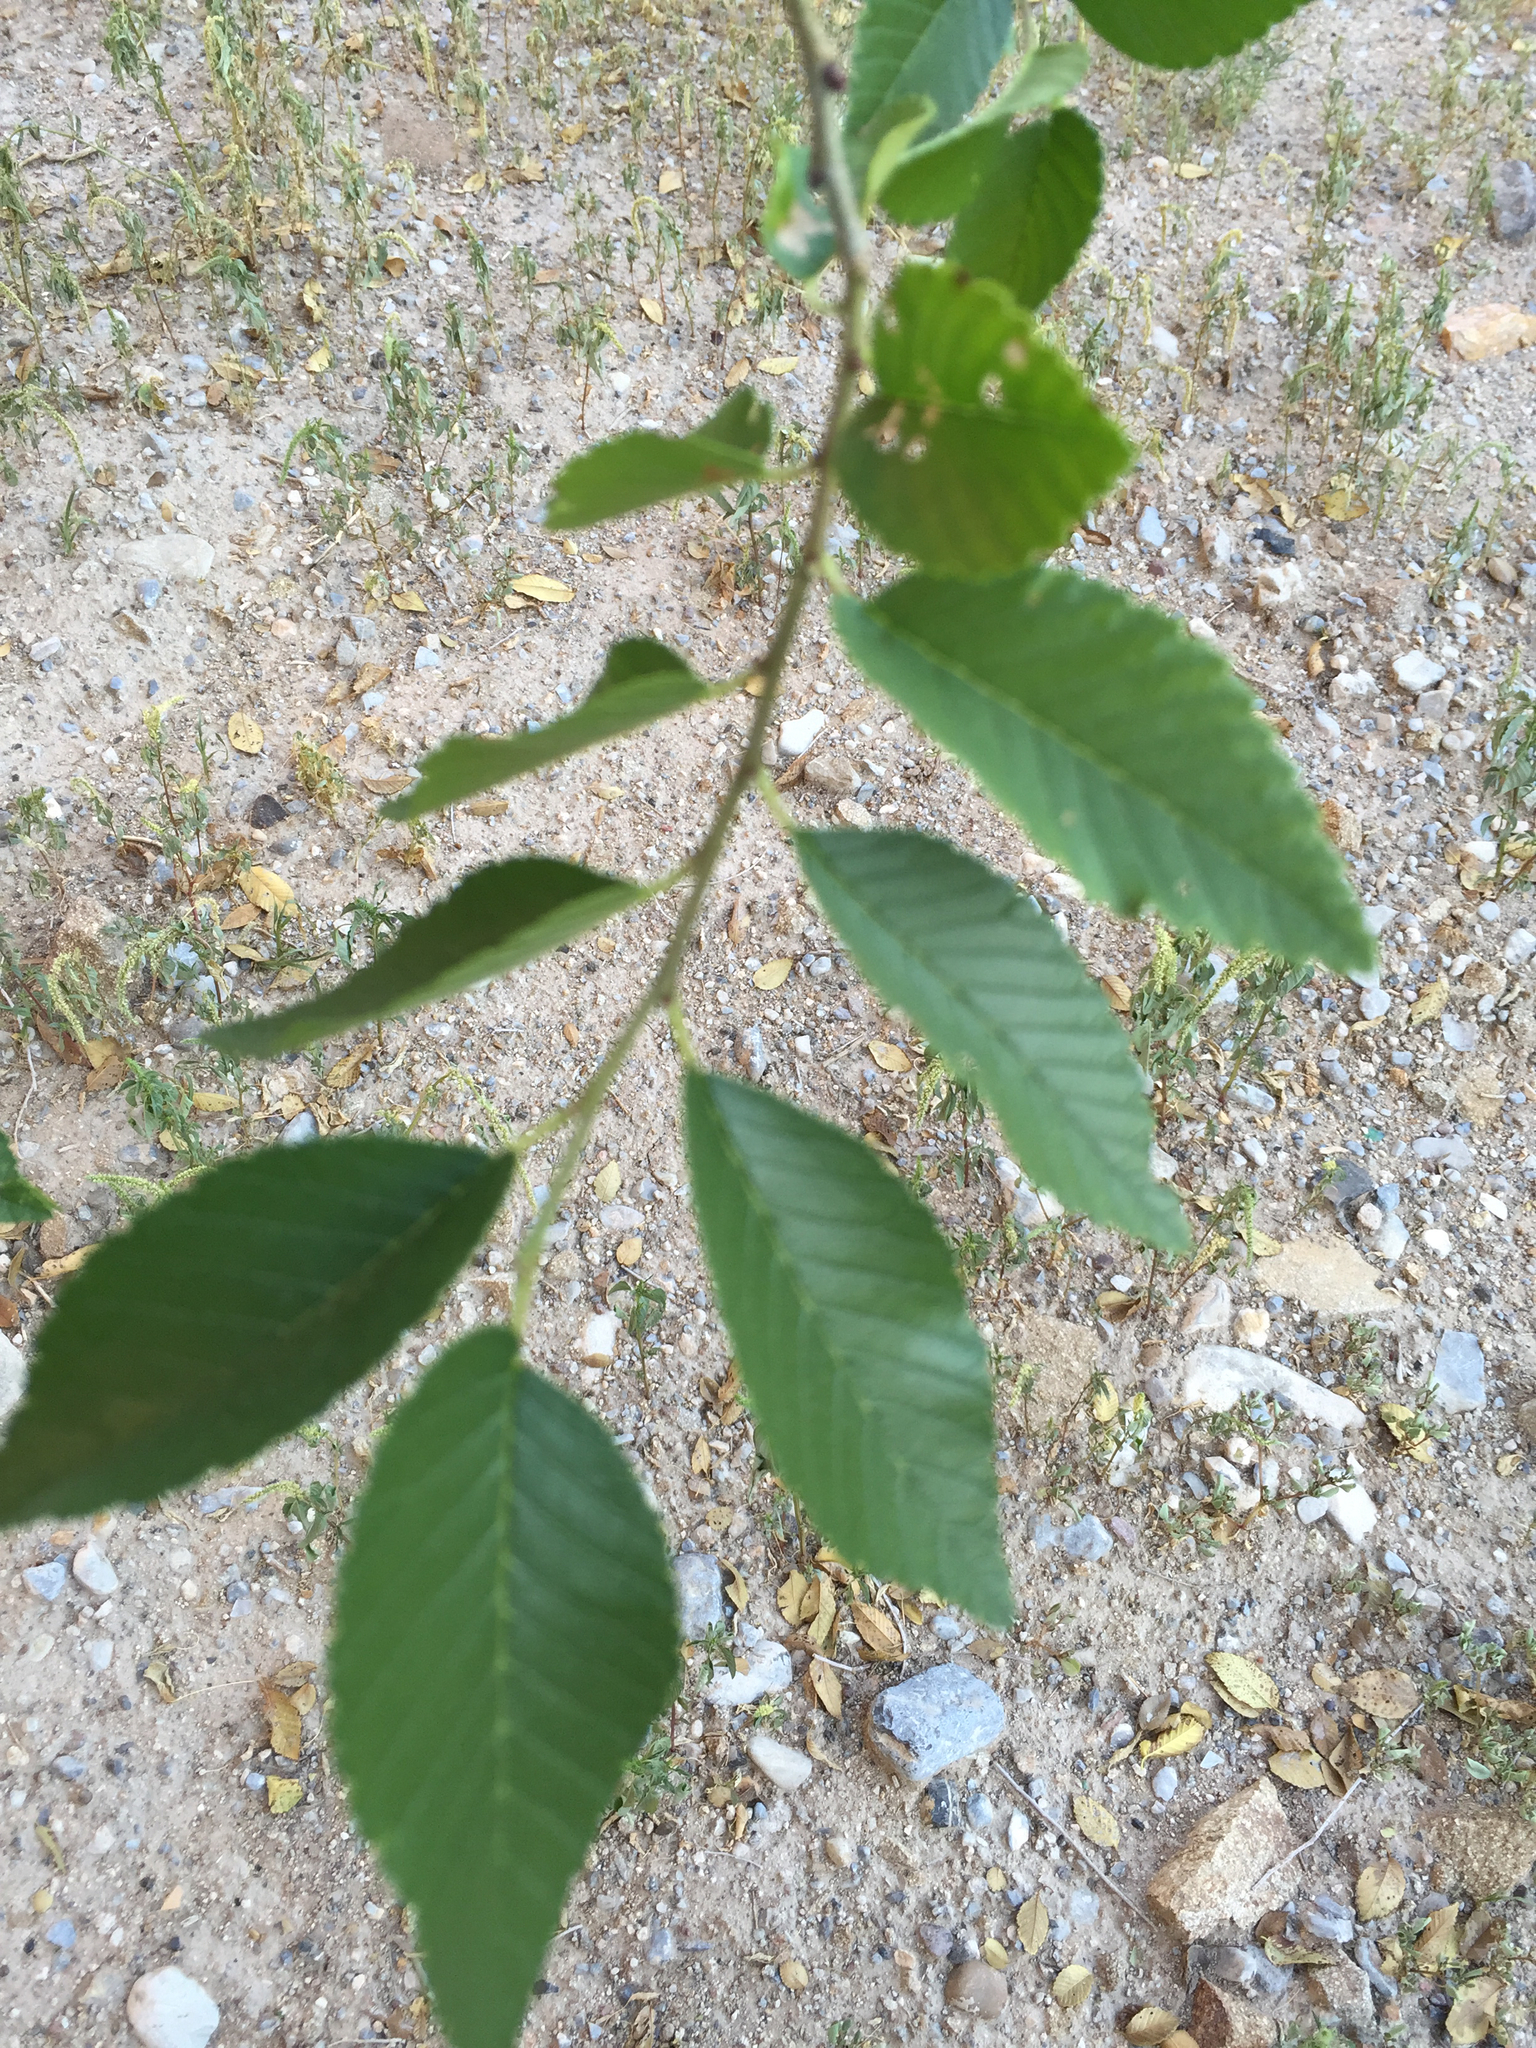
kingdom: Plantae
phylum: Tracheophyta
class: Magnoliopsida
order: Rosales
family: Ulmaceae
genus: Ulmus
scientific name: Ulmus pumila
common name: Siberian elm
